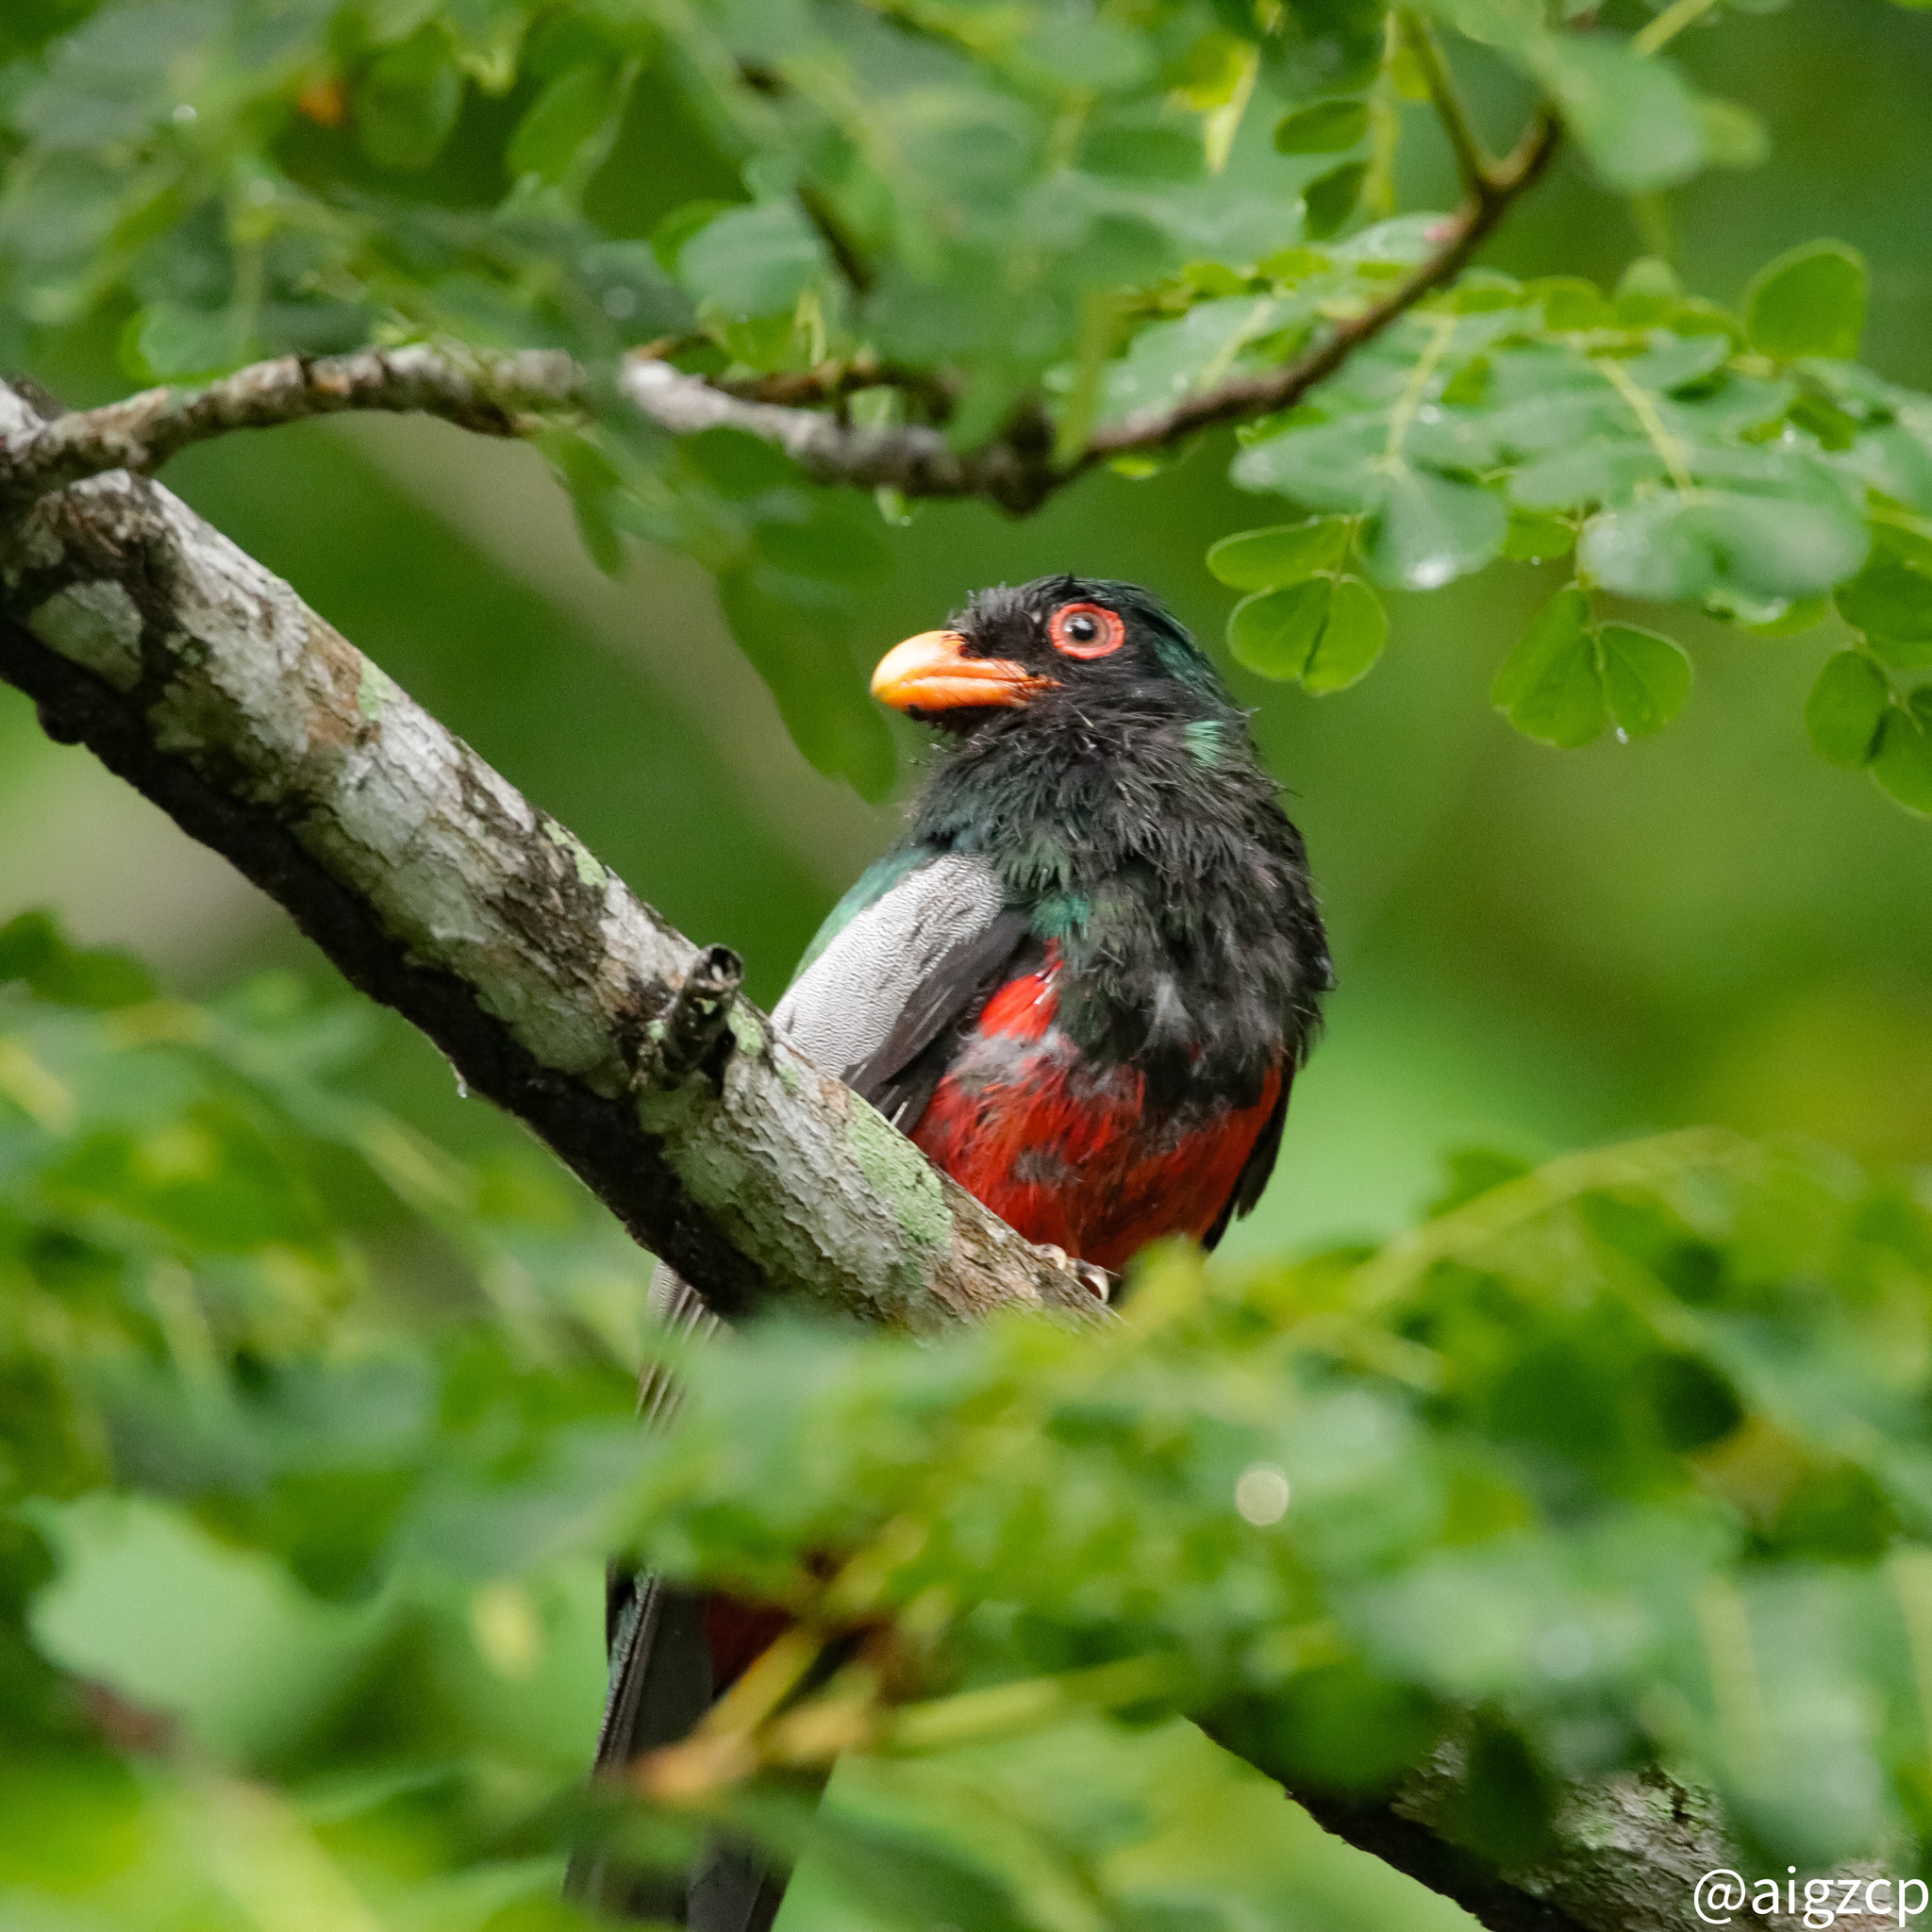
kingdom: Animalia
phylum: Chordata
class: Aves
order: Trogoniformes
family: Trogonidae
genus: Trogon
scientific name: Trogon massena
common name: Slaty-tailed trogon
